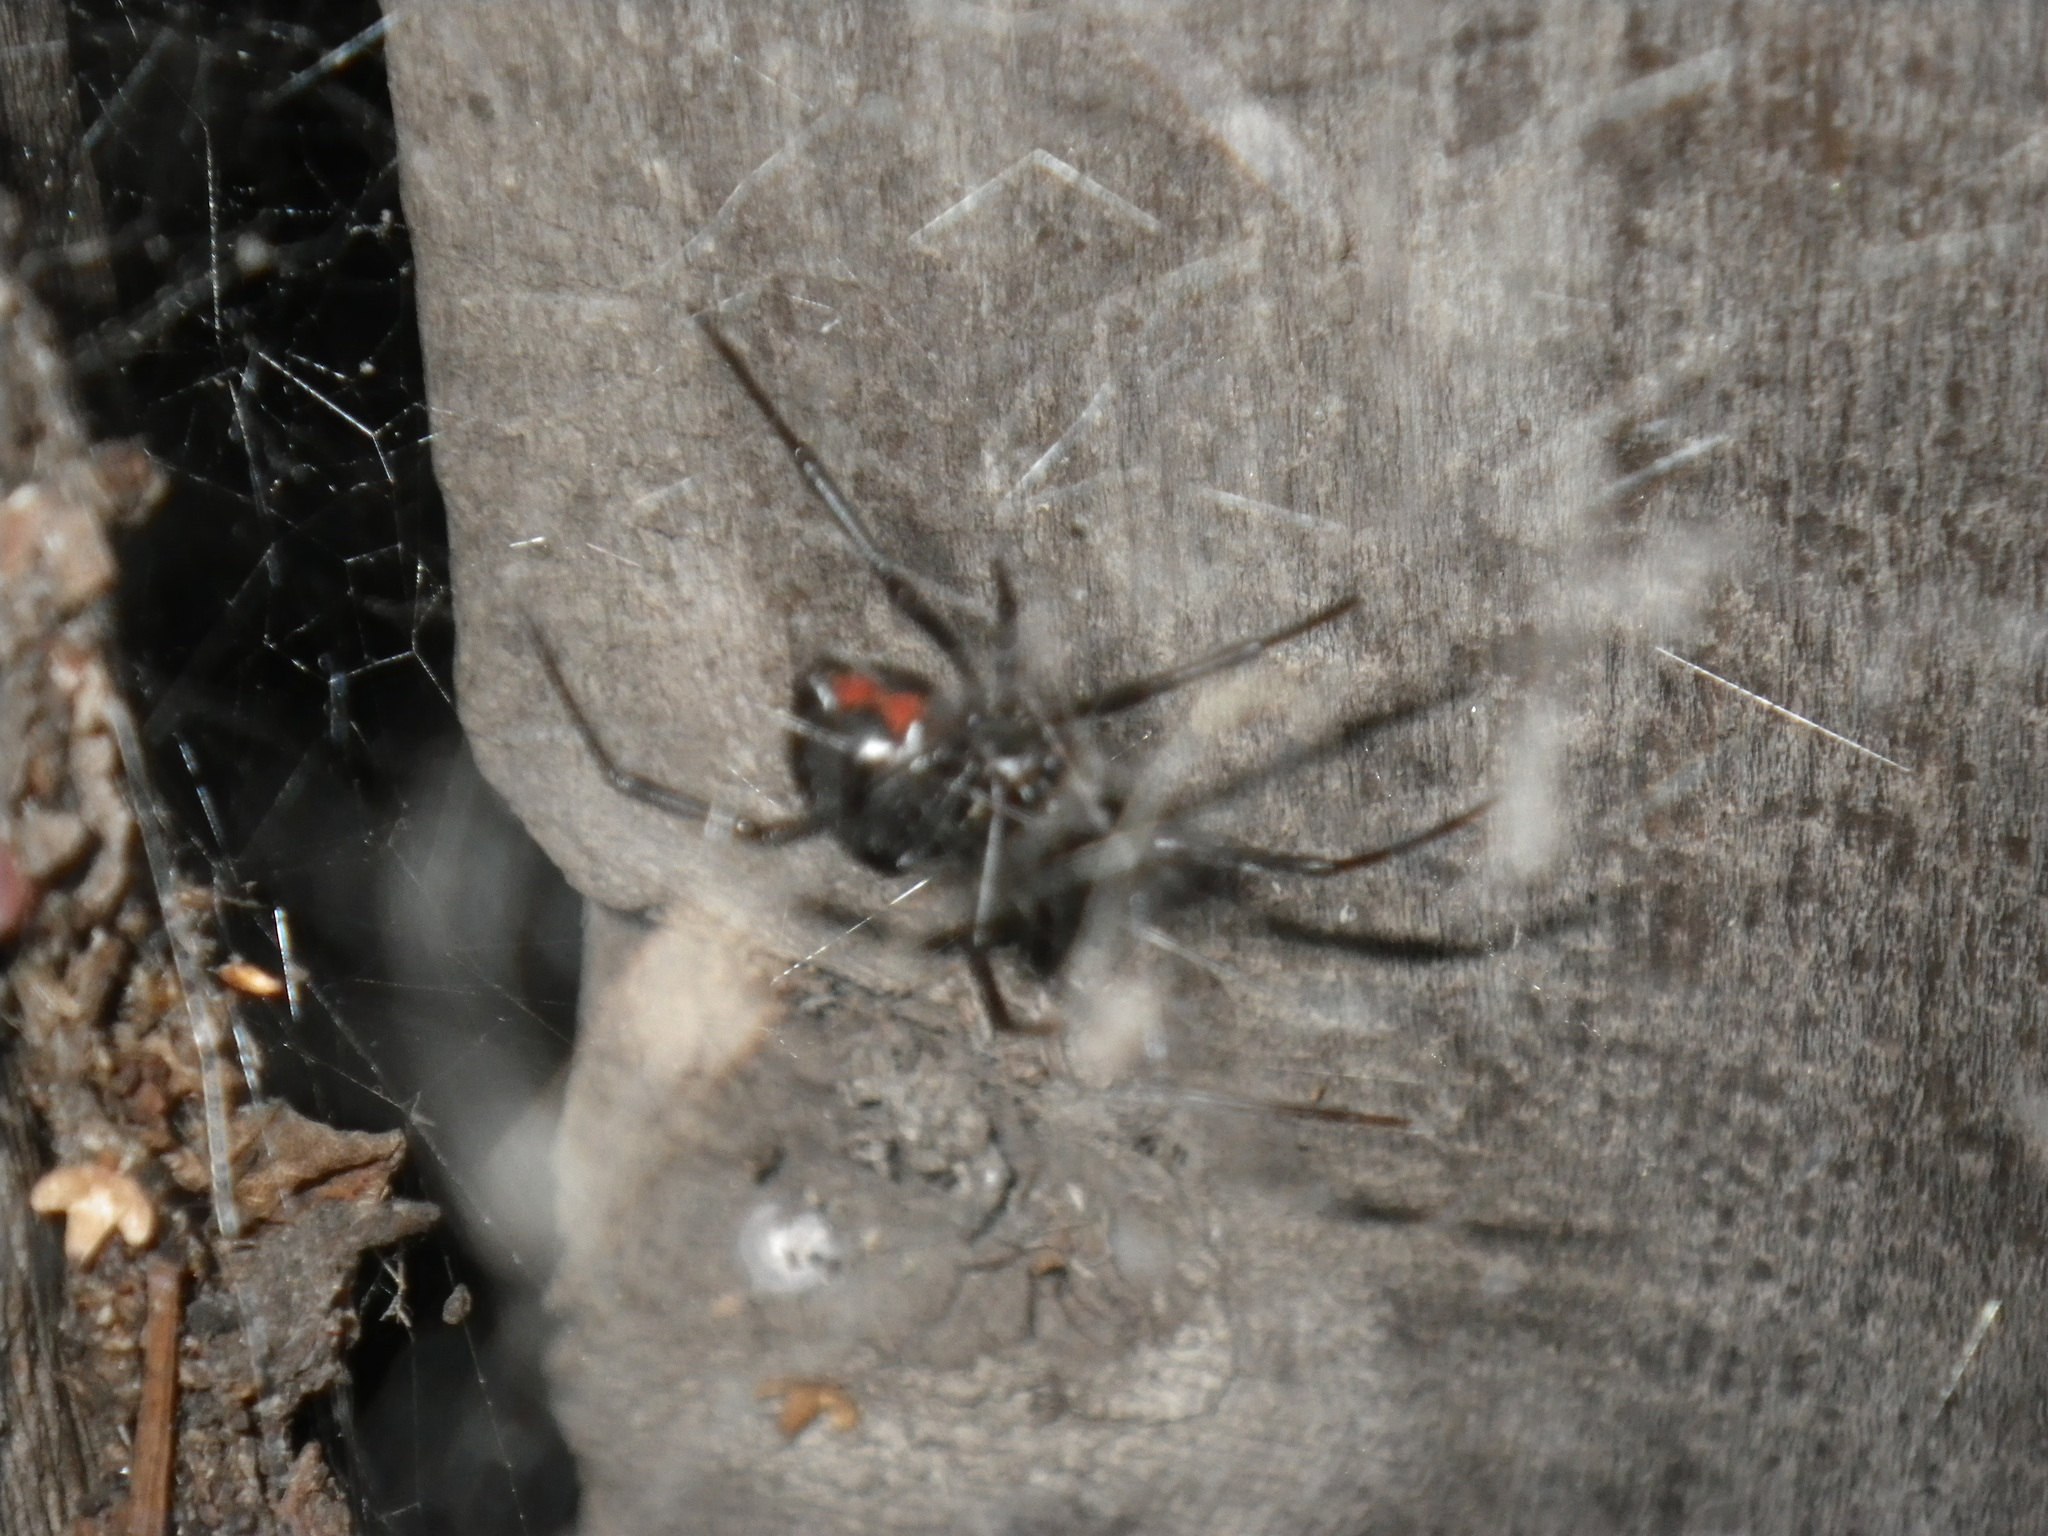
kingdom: Animalia
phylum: Arthropoda
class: Arachnida
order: Araneae
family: Theridiidae
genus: Latrodectus
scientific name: Latrodectus hesperus
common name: Western black widow
